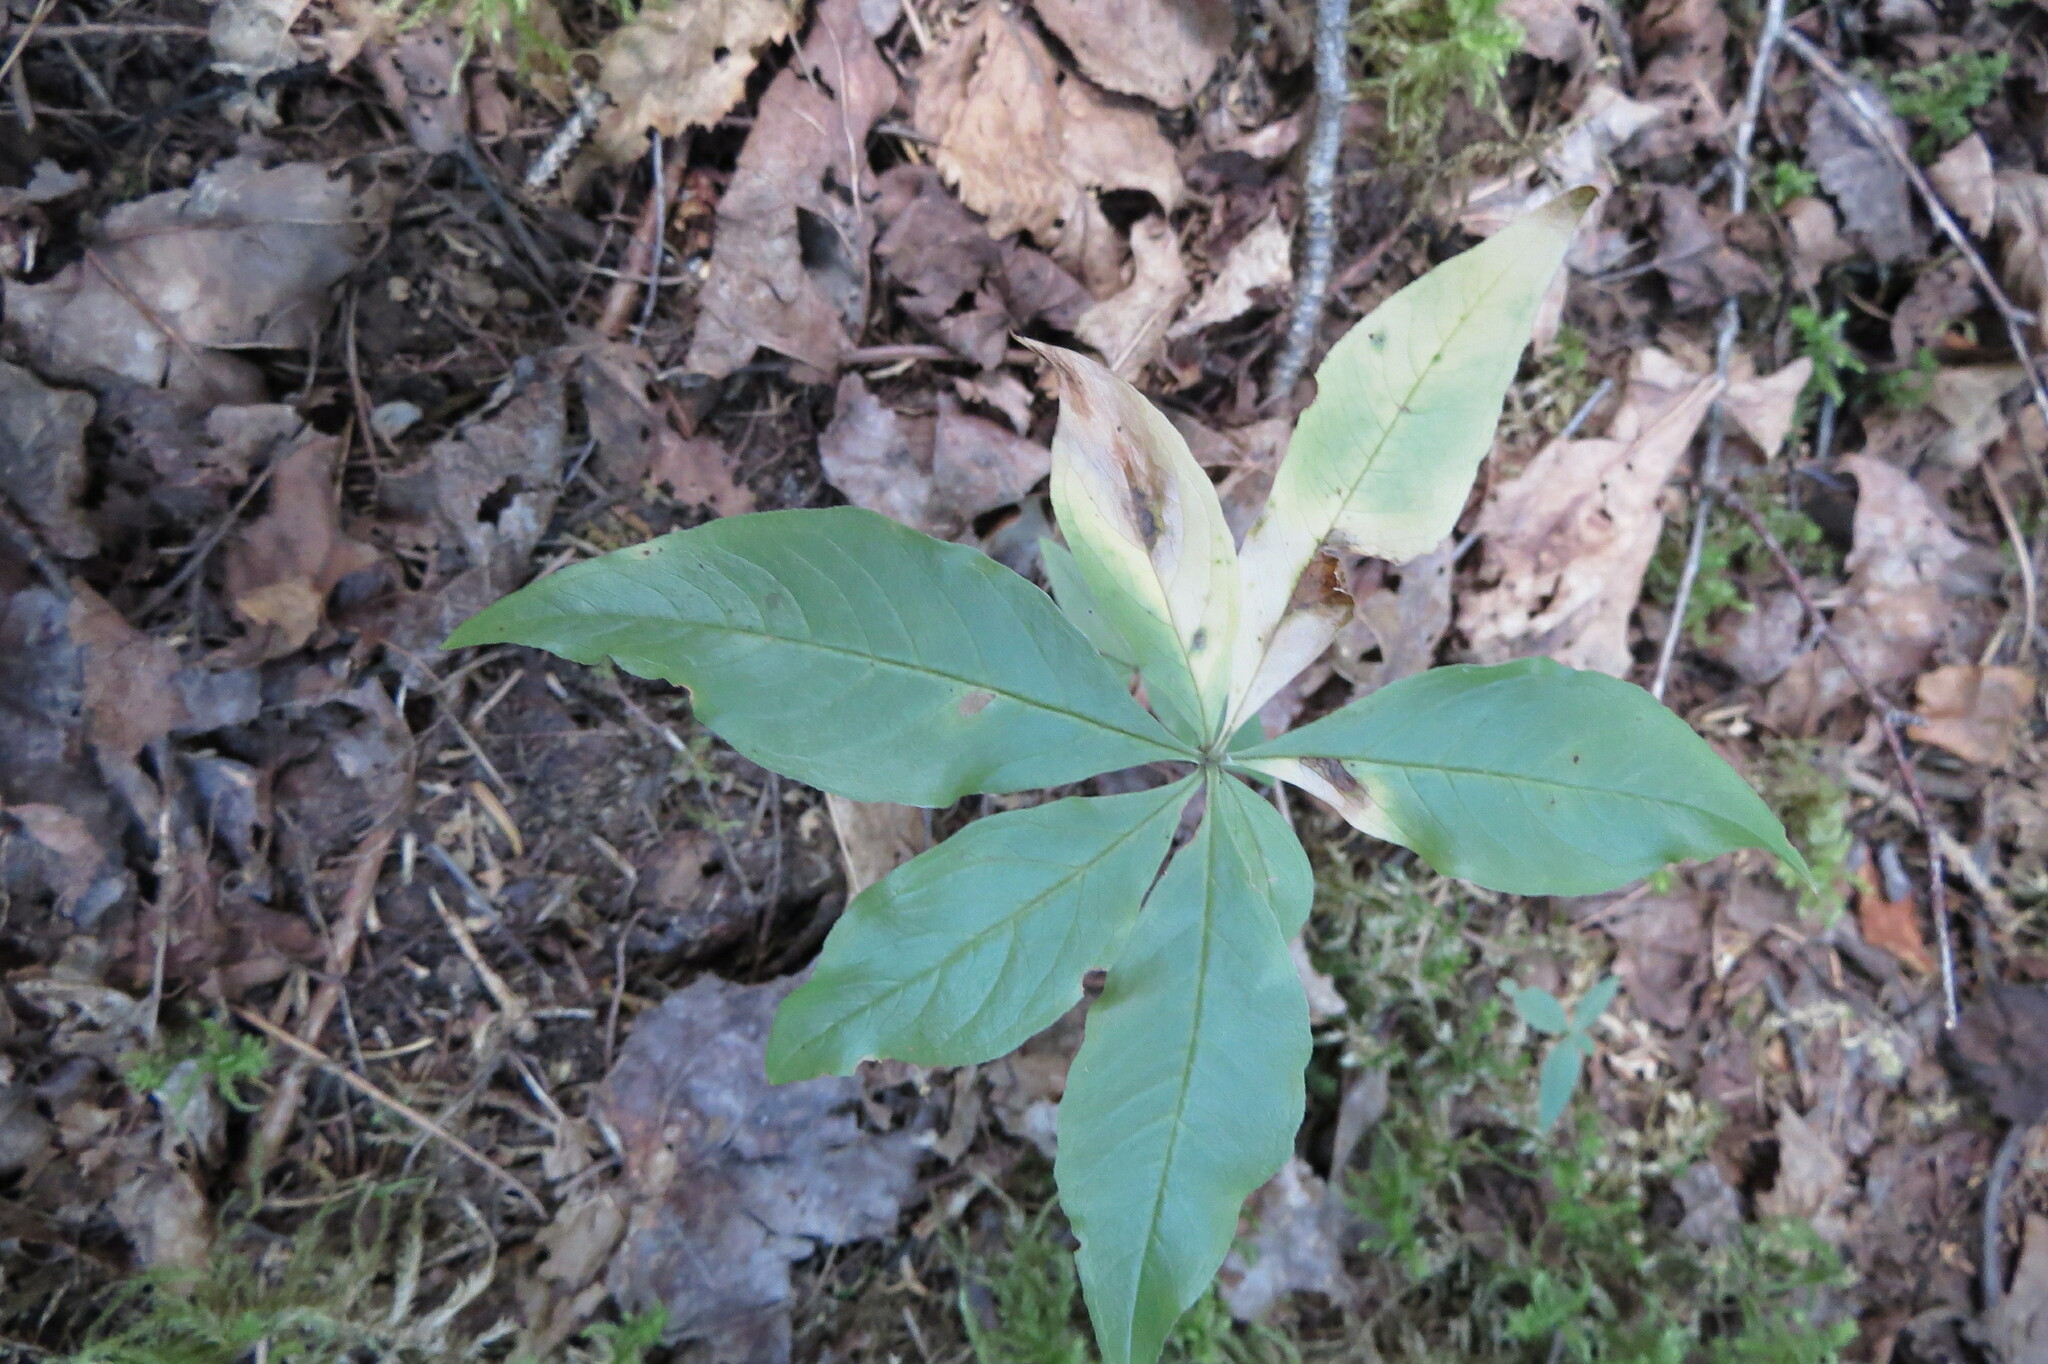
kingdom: Plantae
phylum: Tracheophyta
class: Magnoliopsida
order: Ericales
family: Primulaceae
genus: Lysimachia
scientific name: Lysimachia borealis
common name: American starflower
